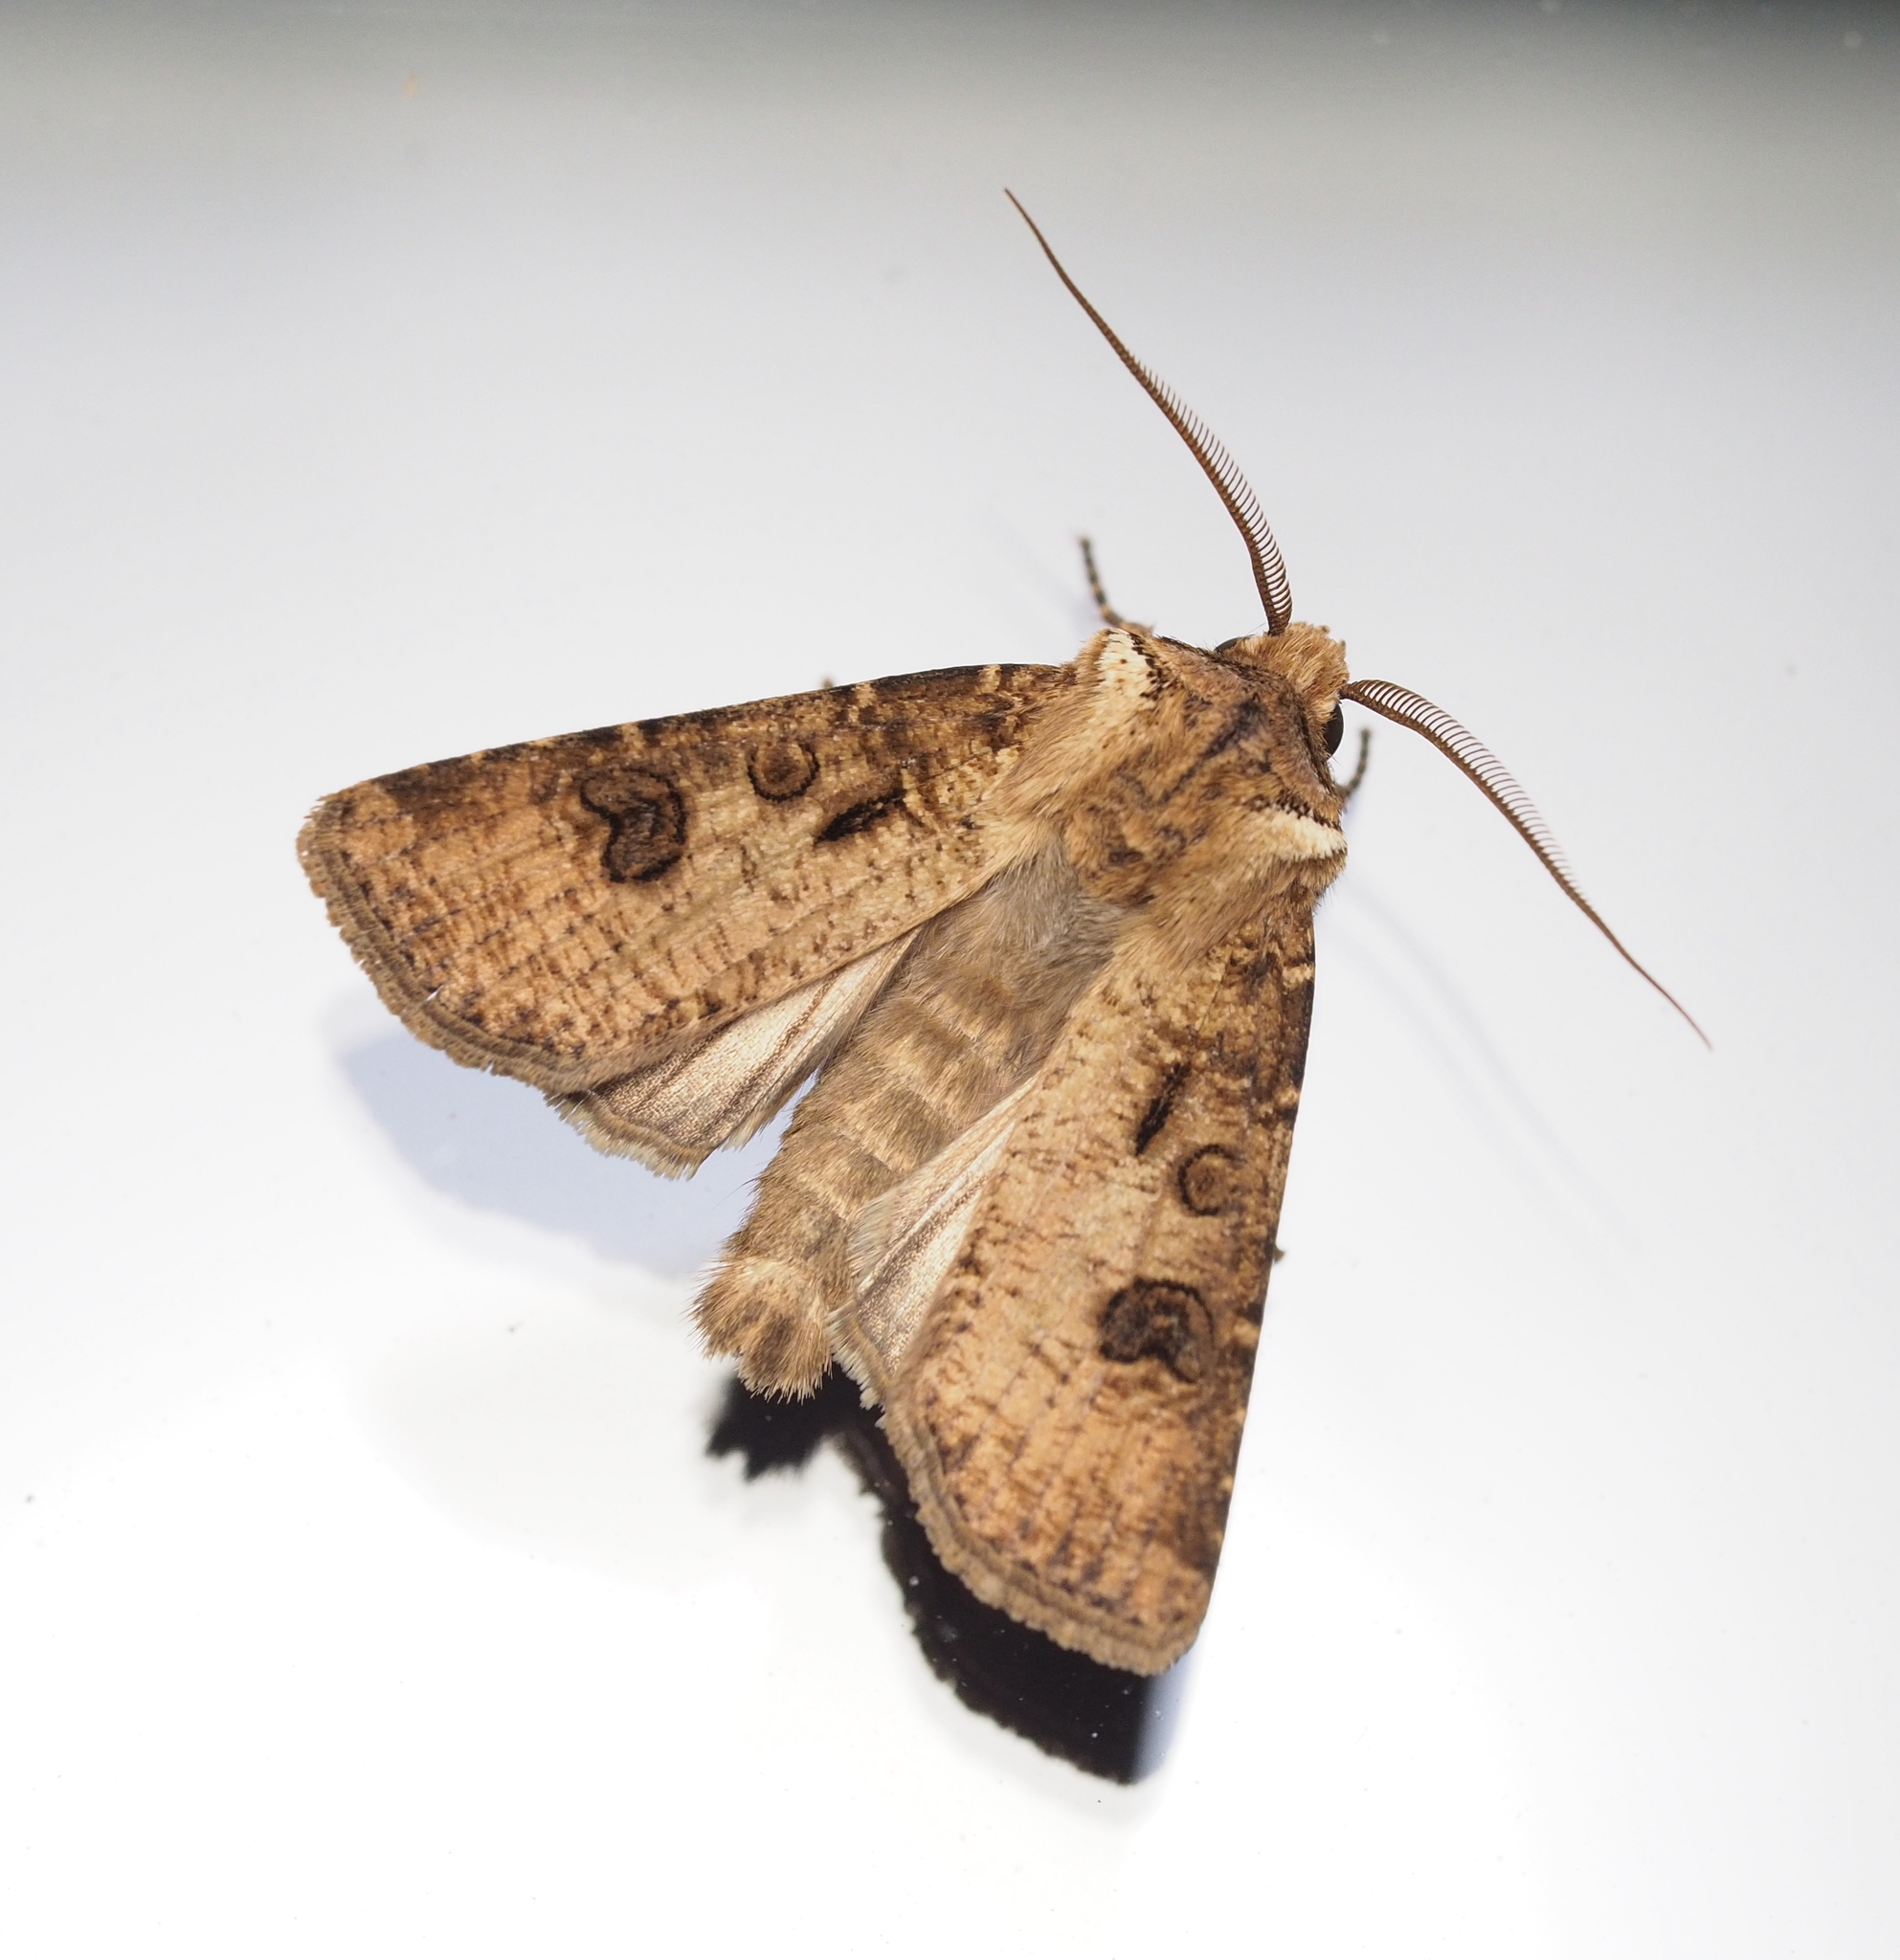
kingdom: Animalia
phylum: Arthropoda
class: Insecta
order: Lepidoptera
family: Noctuidae
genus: Agrotis
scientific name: Agrotis clavis
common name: Heart and club
